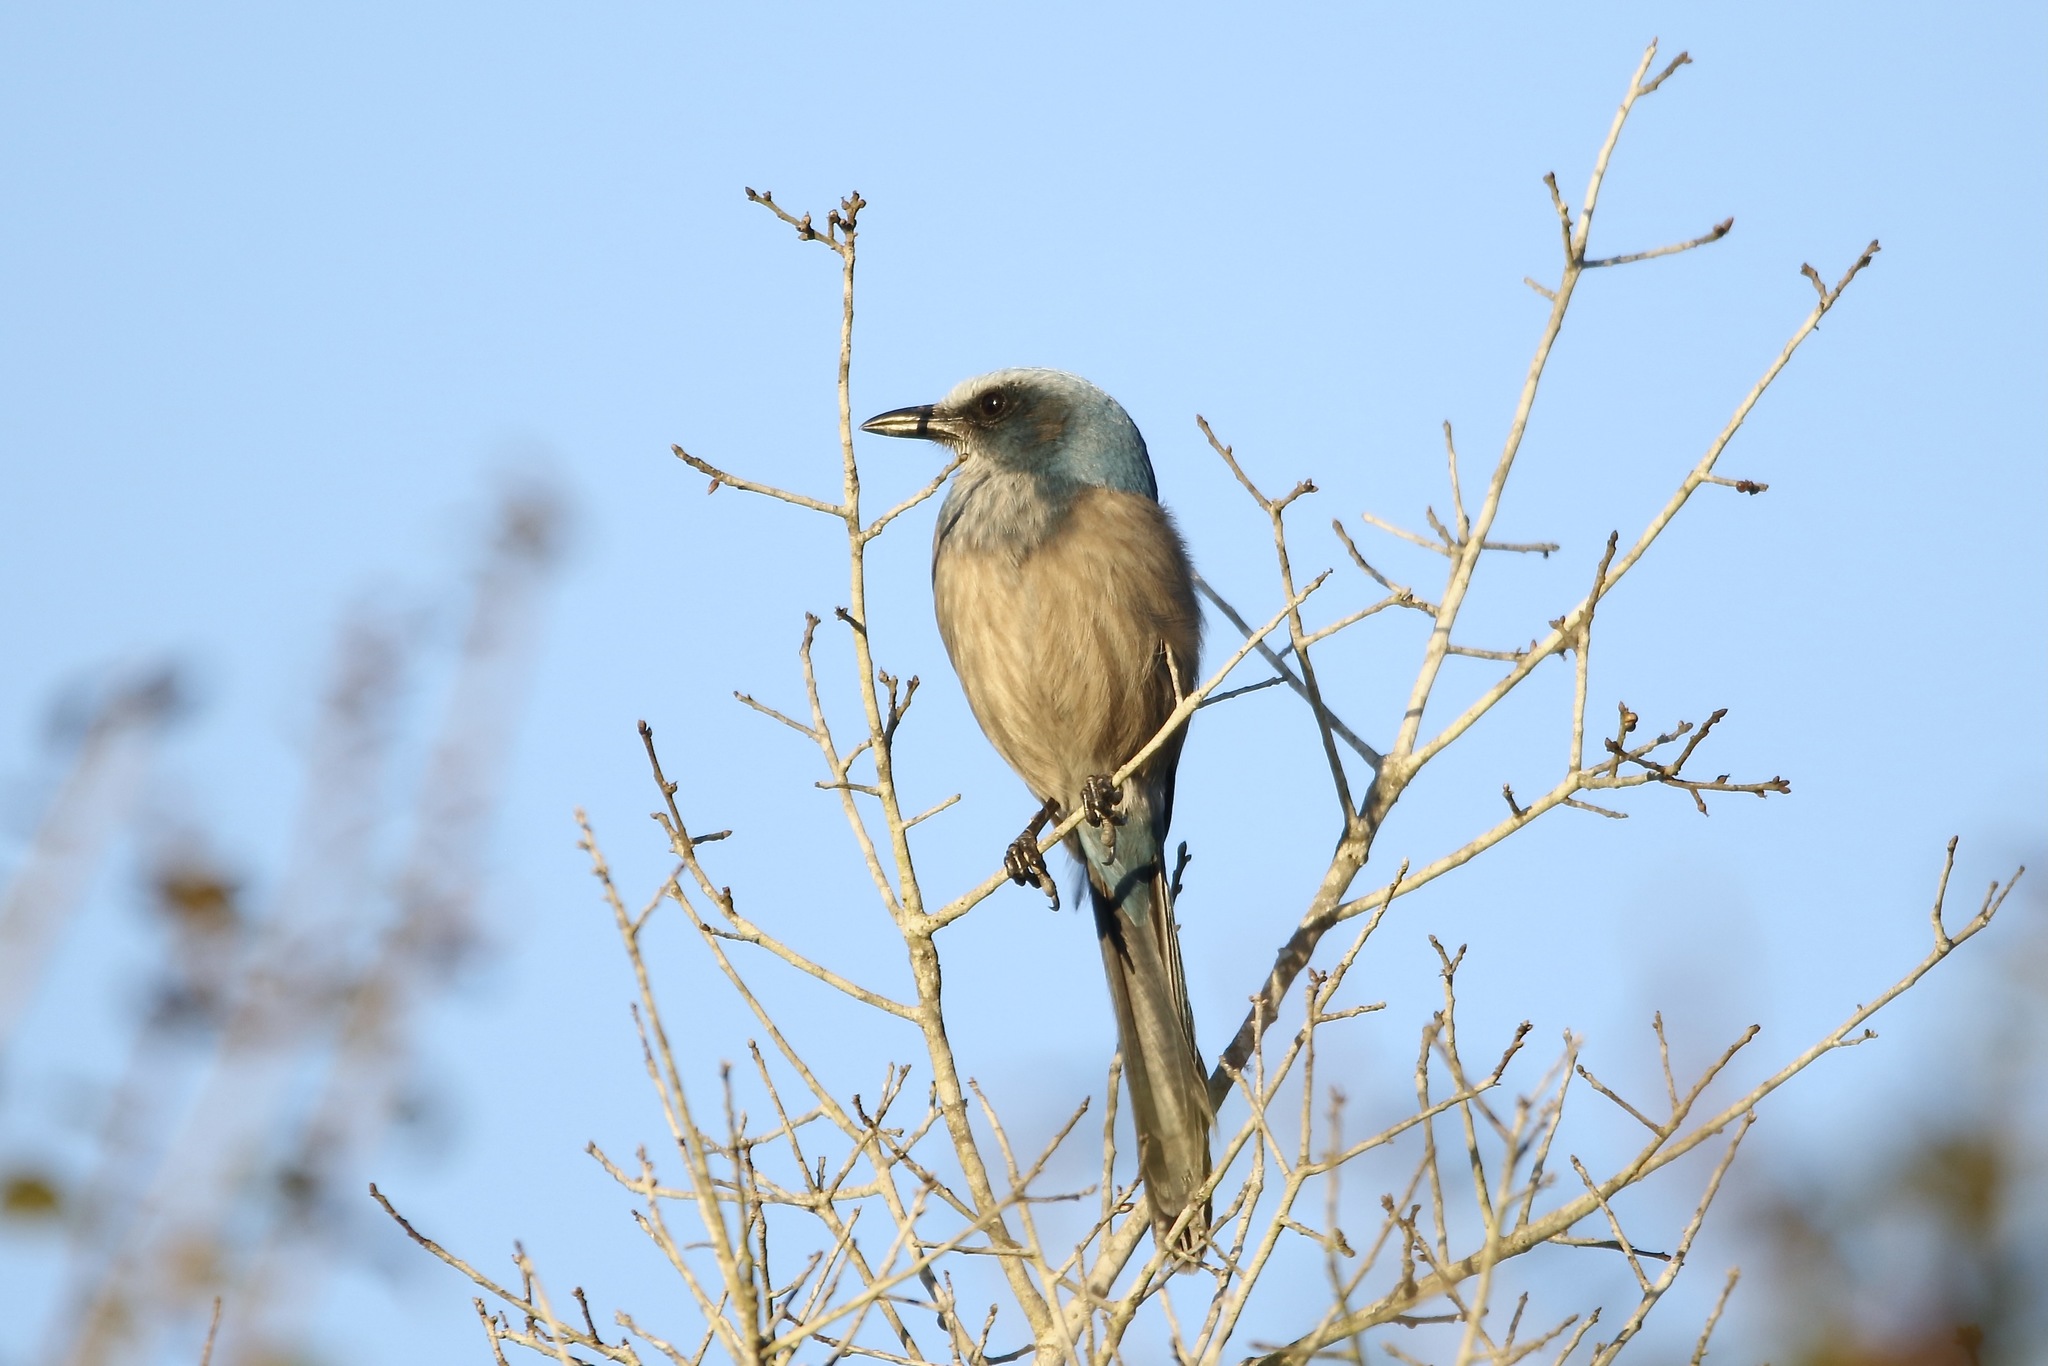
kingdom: Animalia
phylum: Chordata
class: Aves
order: Passeriformes
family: Corvidae
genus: Aphelocoma
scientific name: Aphelocoma coerulescens
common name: Florida scrub jay
